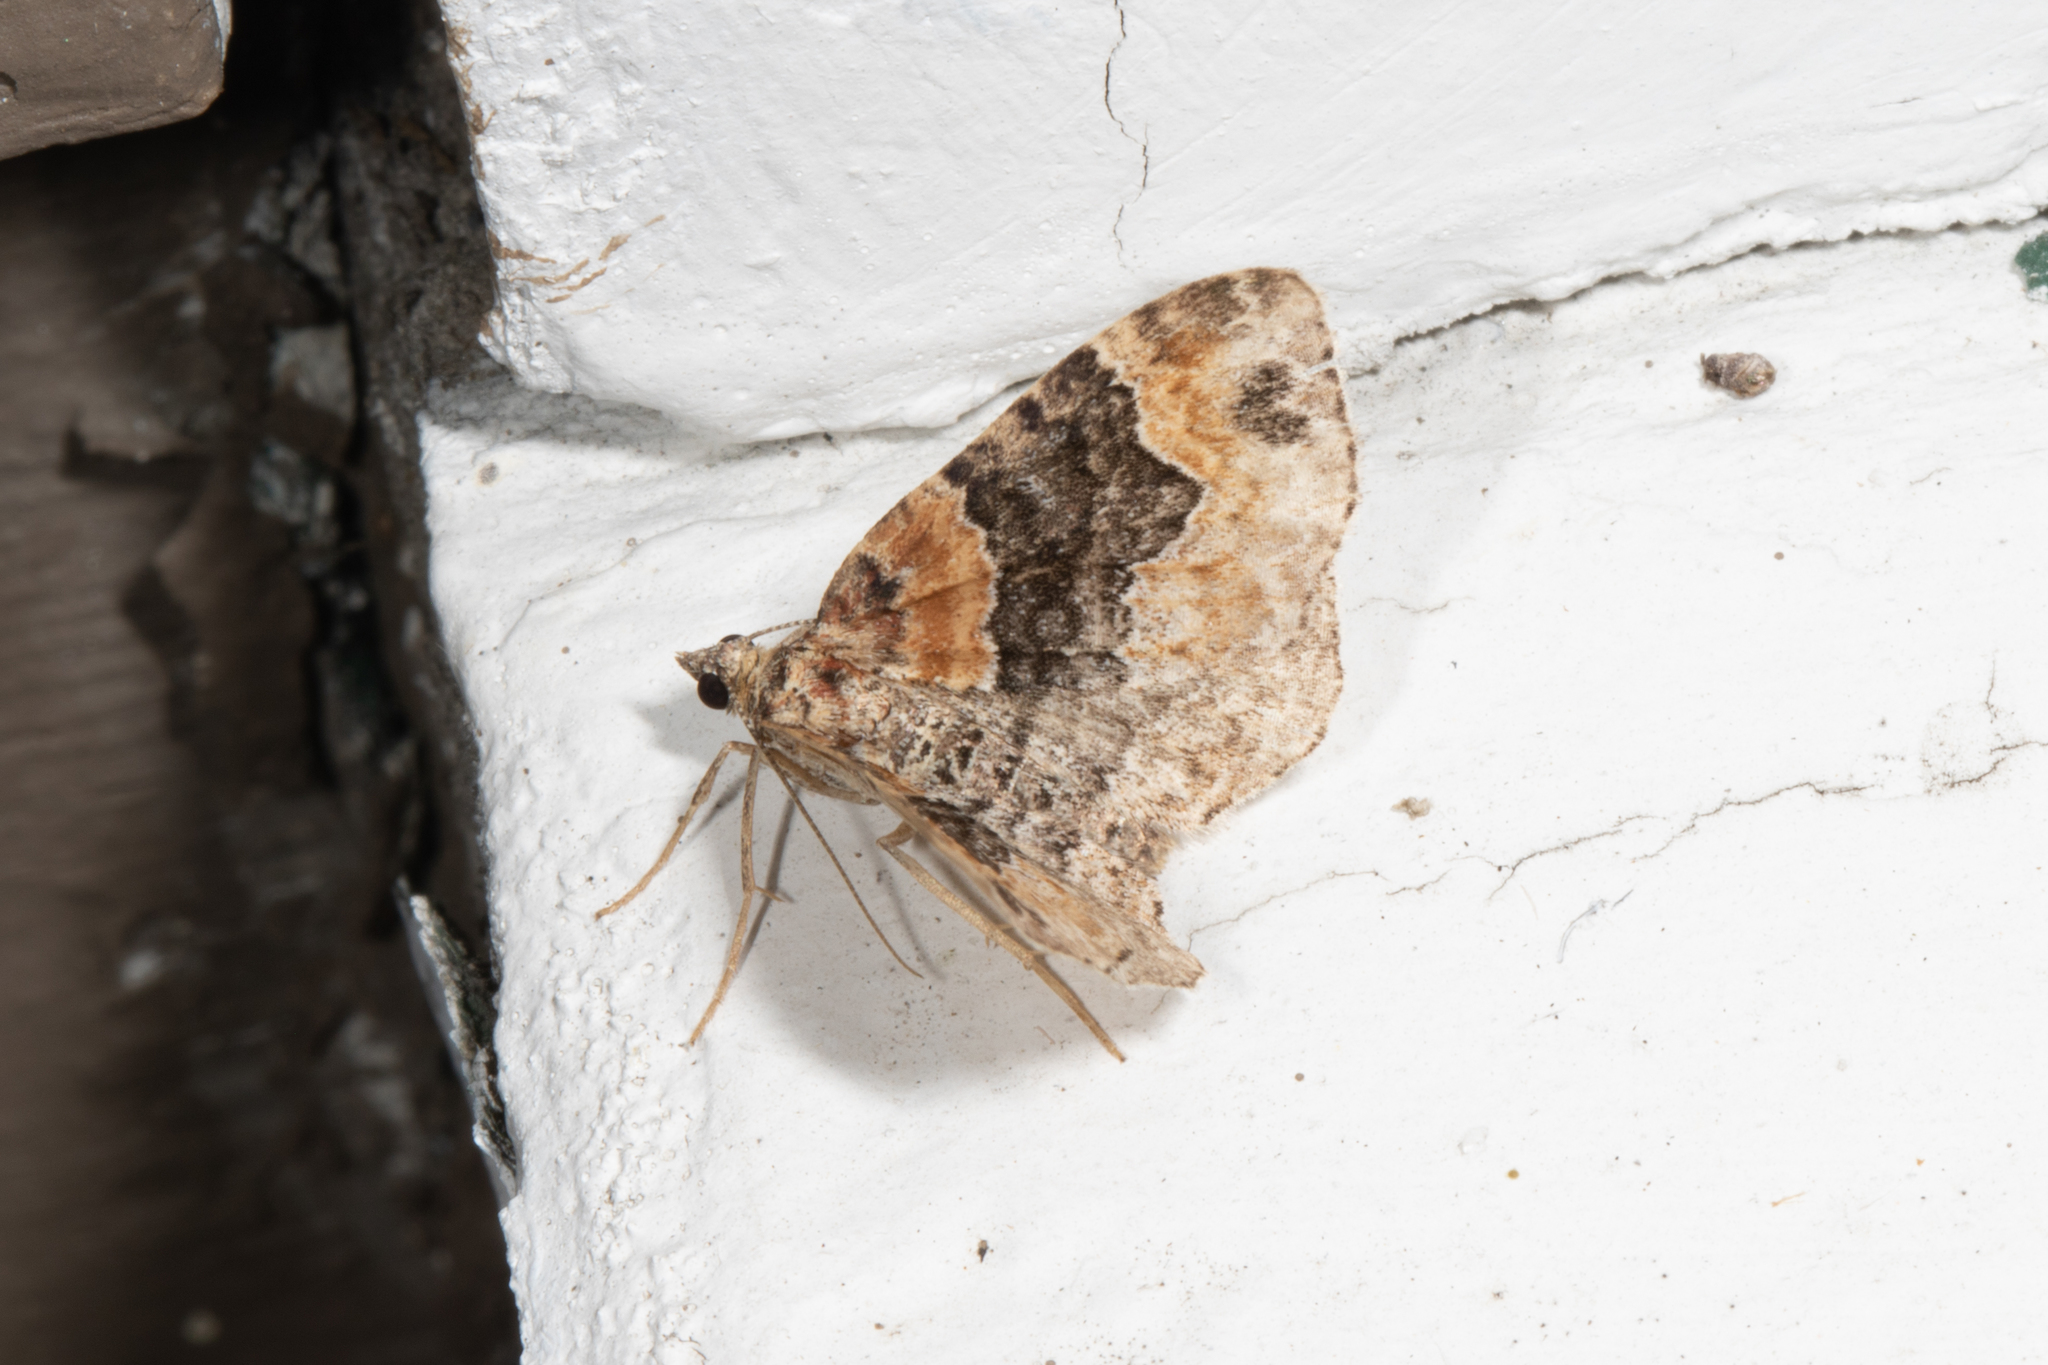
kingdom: Animalia
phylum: Arthropoda
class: Insecta
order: Lepidoptera
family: Geometridae
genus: Xanthorhoe
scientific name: Xanthorhoe ferrugata
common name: Dark-barred twin-spot carpet
